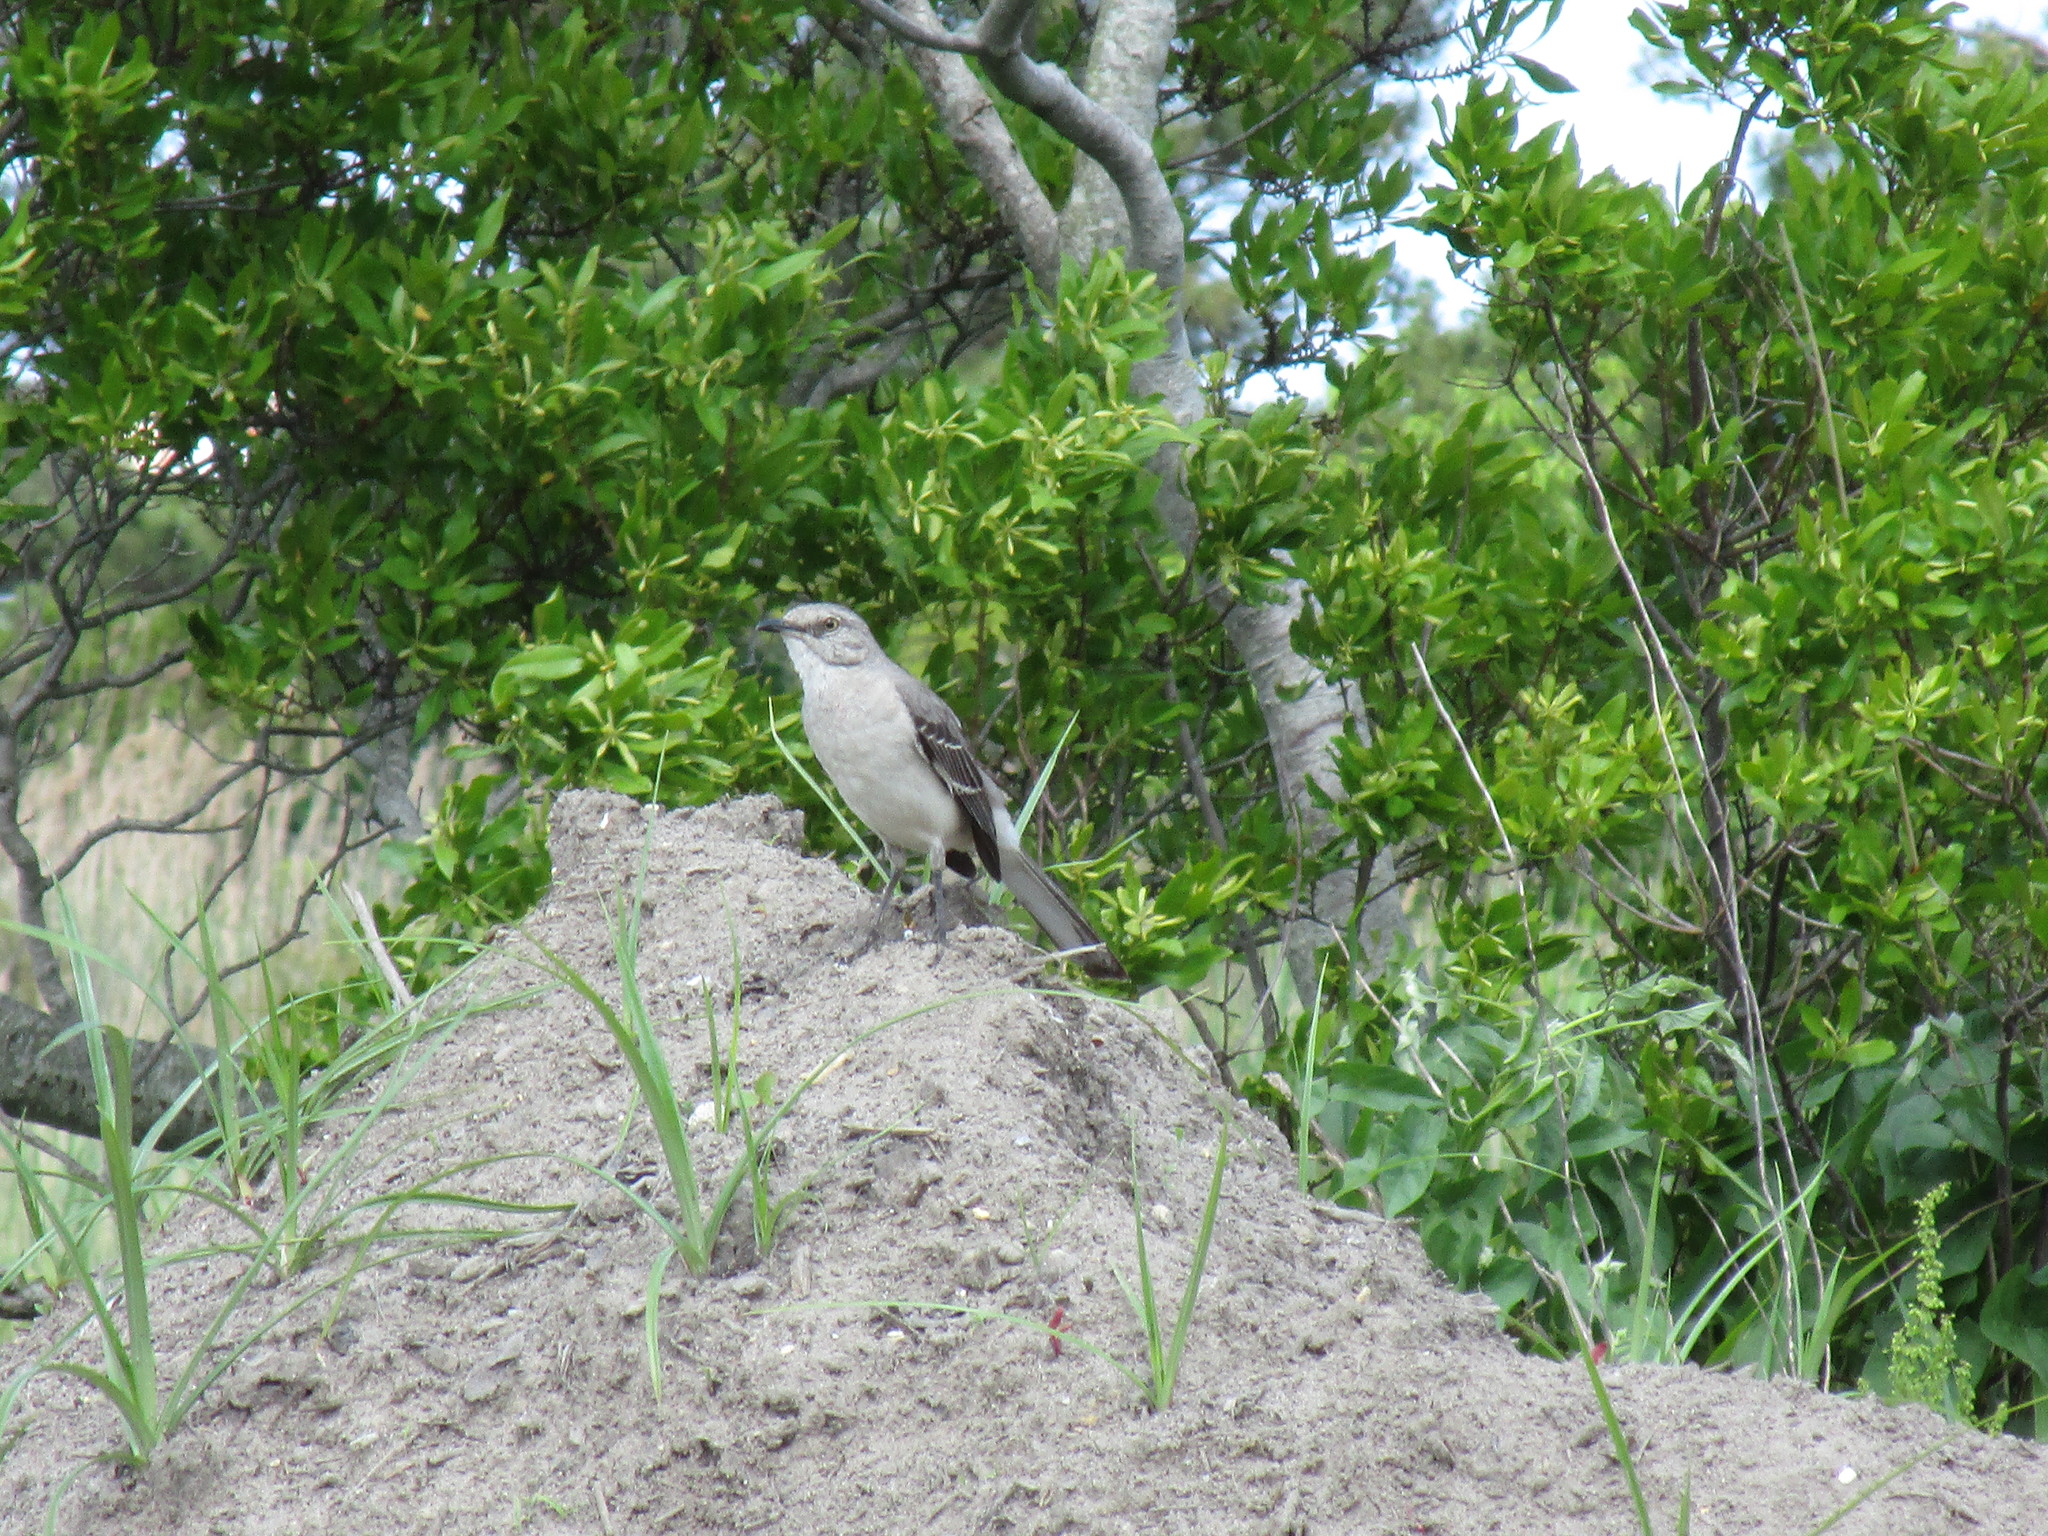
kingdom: Animalia
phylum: Chordata
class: Aves
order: Passeriformes
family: Mimidae
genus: Mimus
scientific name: Mimus polyglottos
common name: Northern mockingbird
